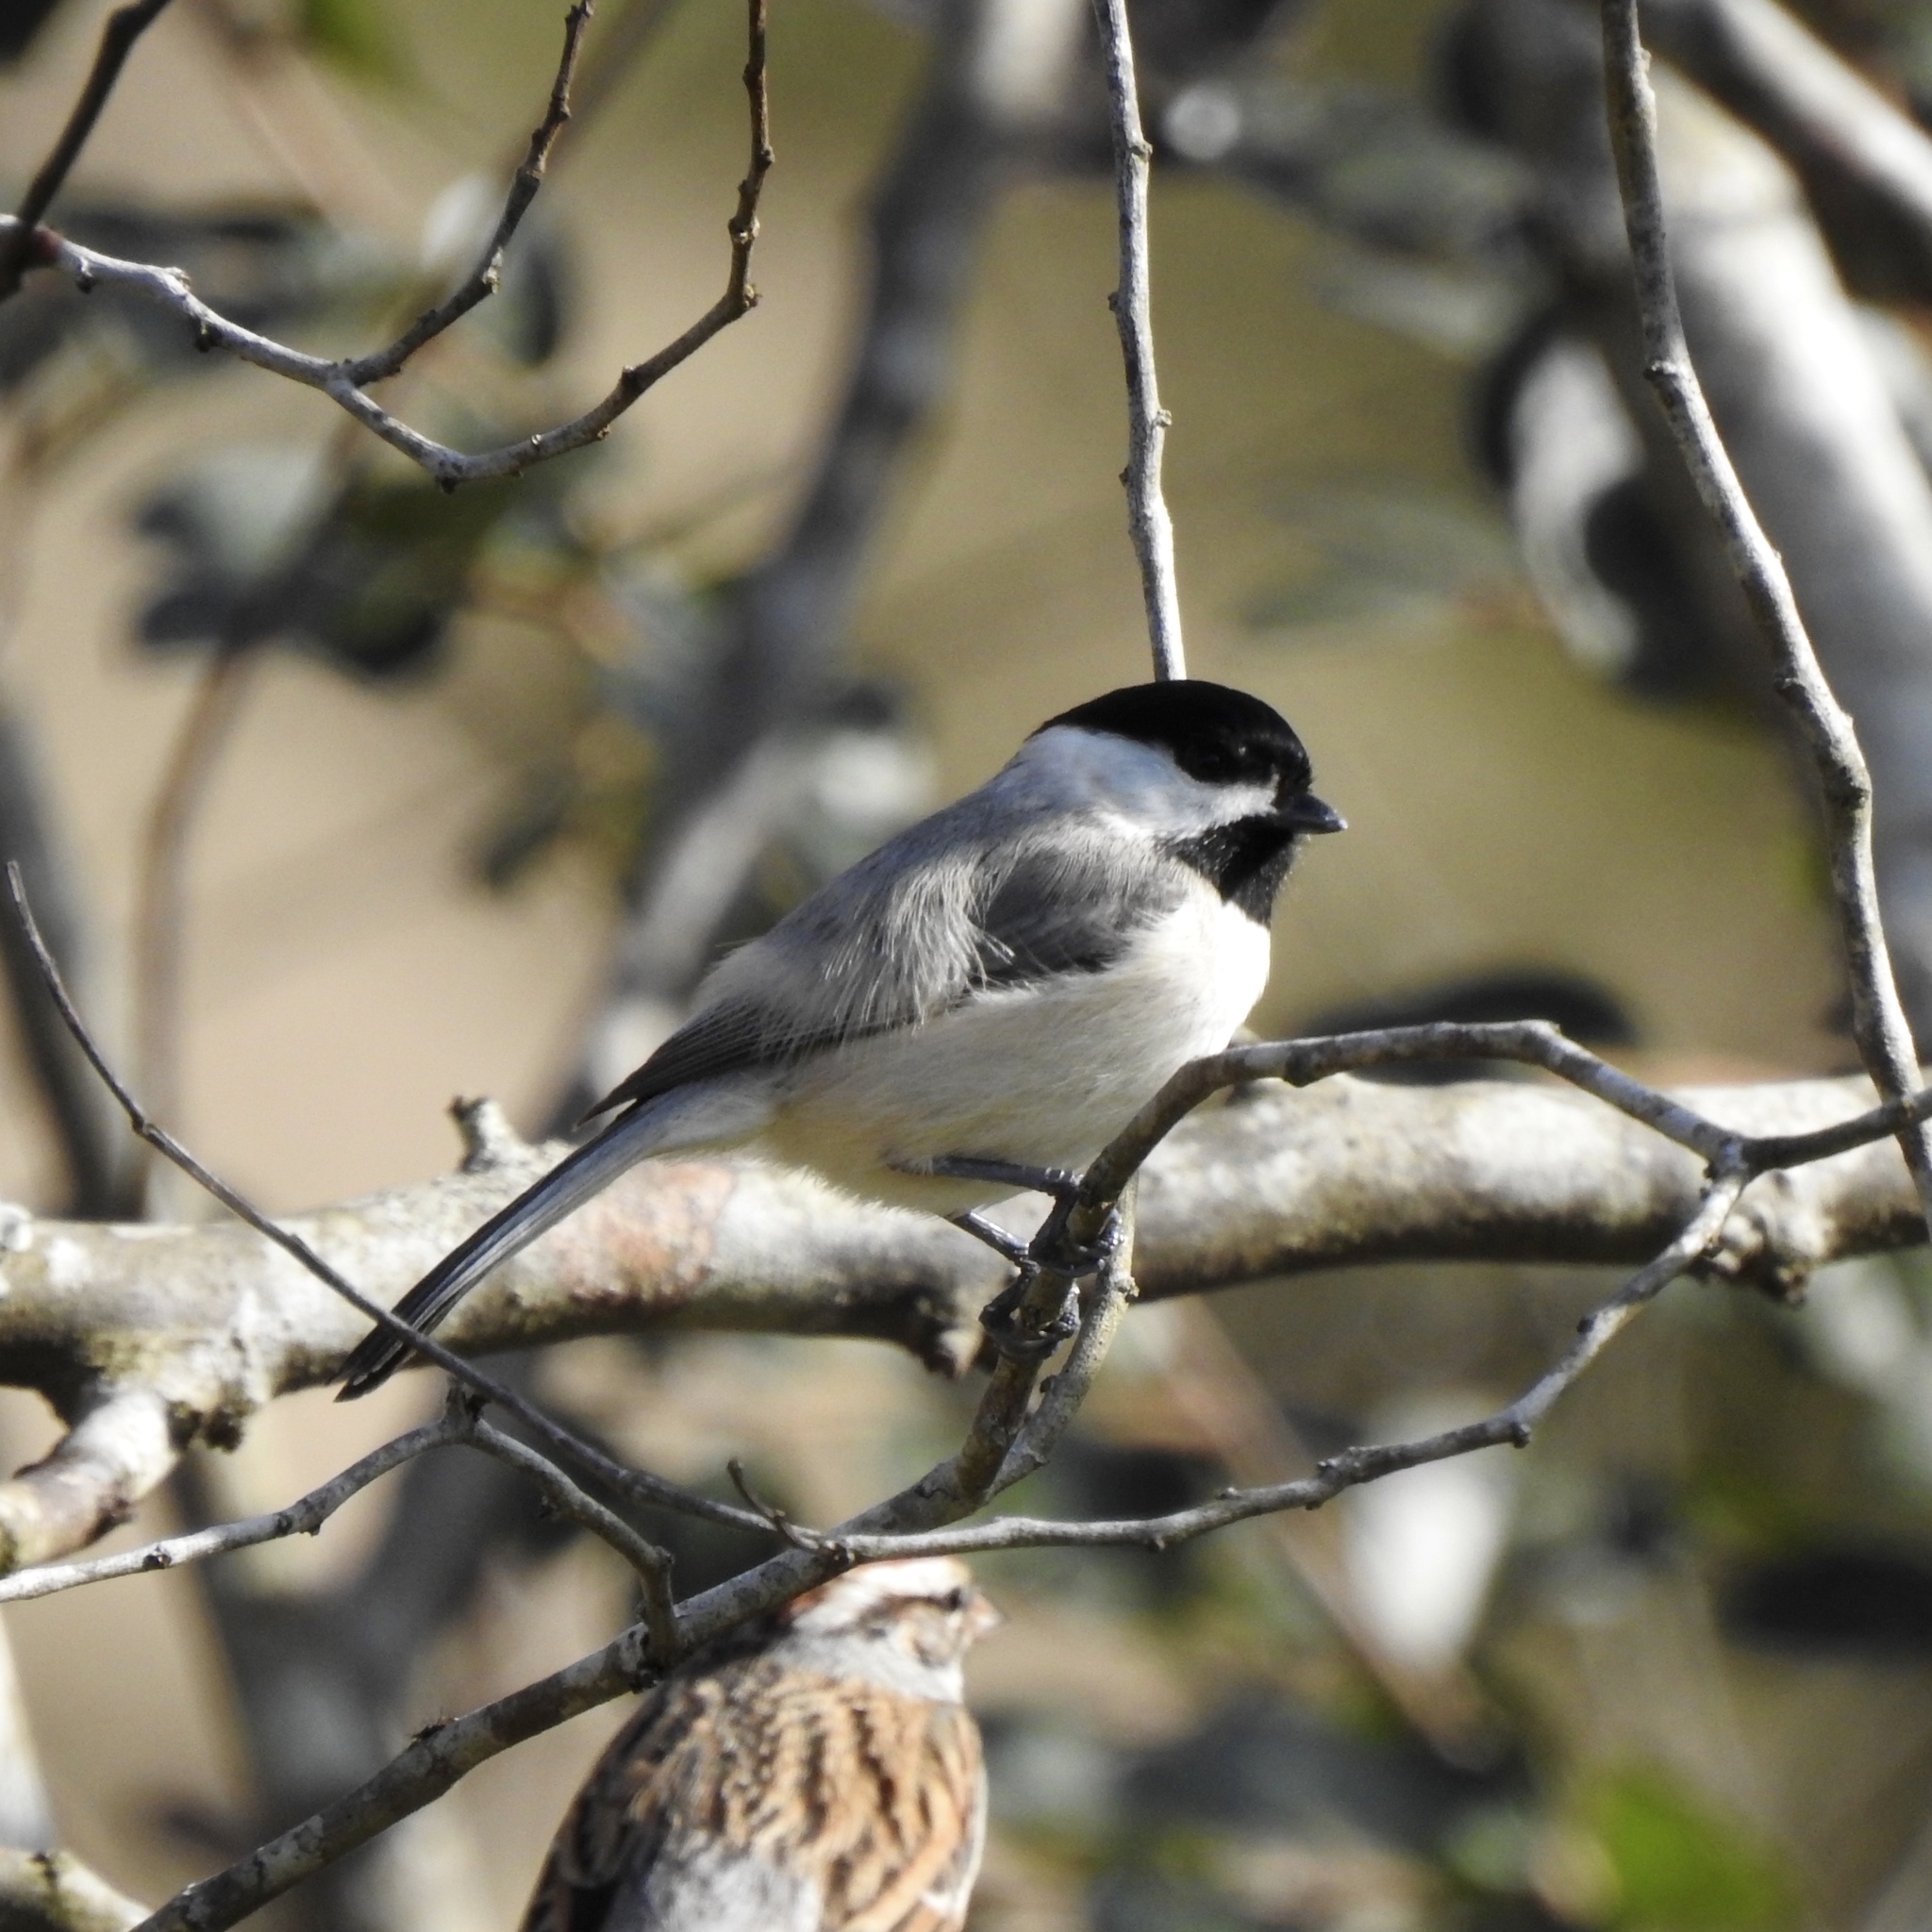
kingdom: Animalia
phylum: Chordata
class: Aves
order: Passeriformes
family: Paridae
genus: Poecile
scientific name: Poecile carolinensis
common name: Carolina chickadee
